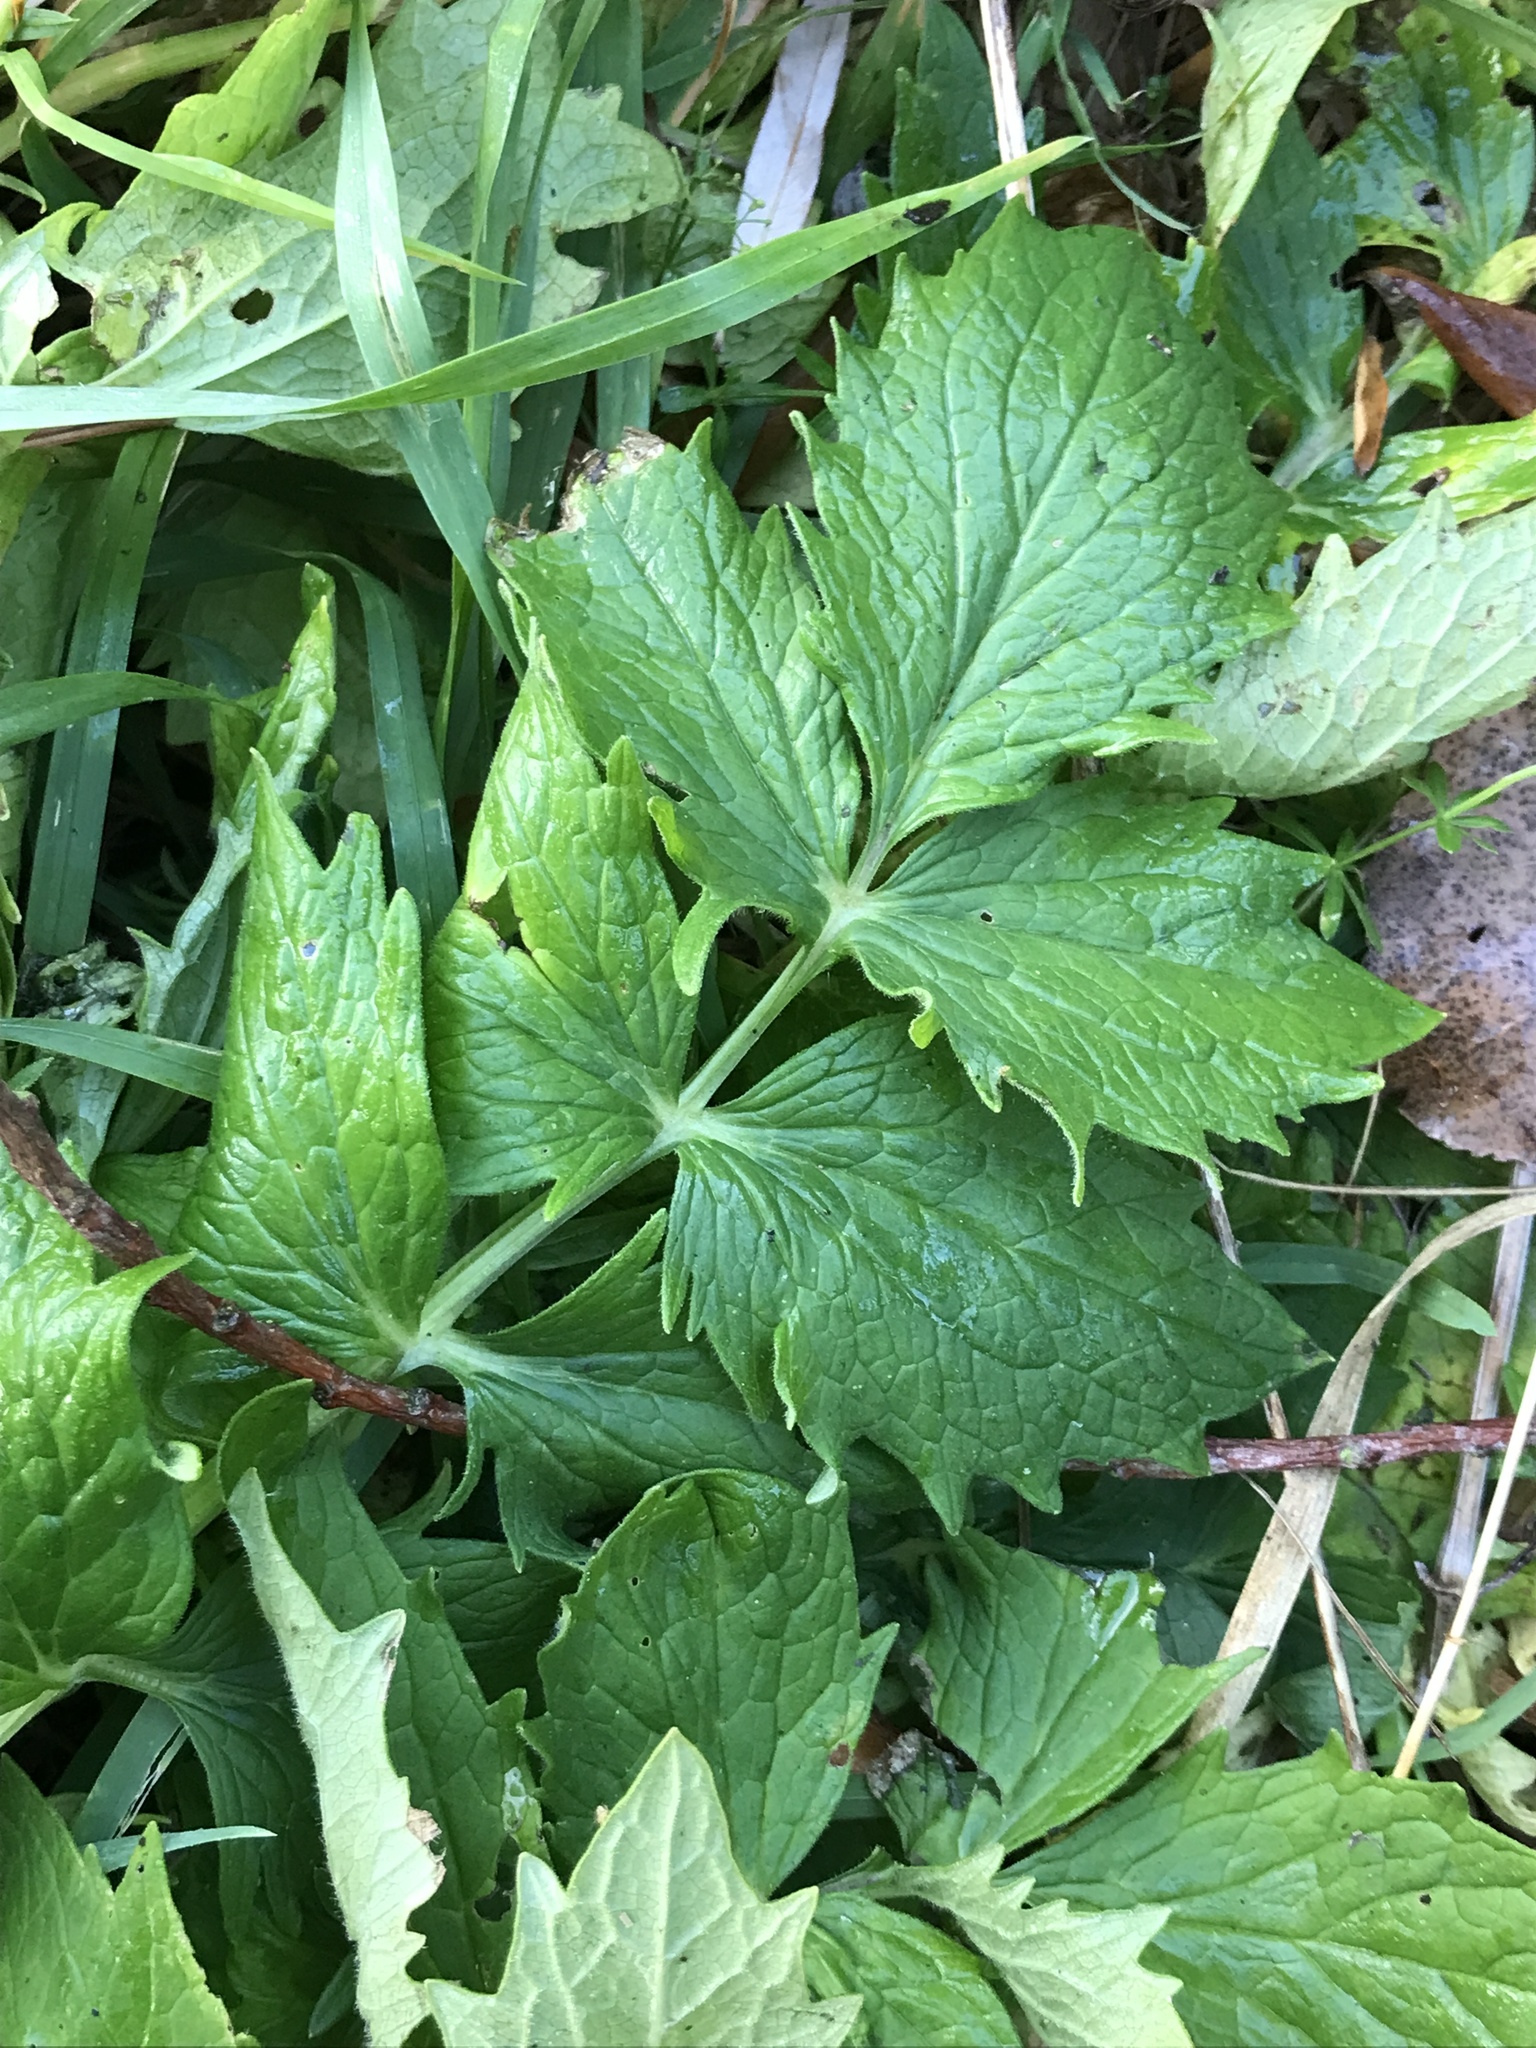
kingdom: Plantae
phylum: Tracheophyta
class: Magnoliopsida
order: Dipsacales
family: Caprifoliaceae
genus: Valeriana
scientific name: Valeriana officinalis
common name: Common valerian
